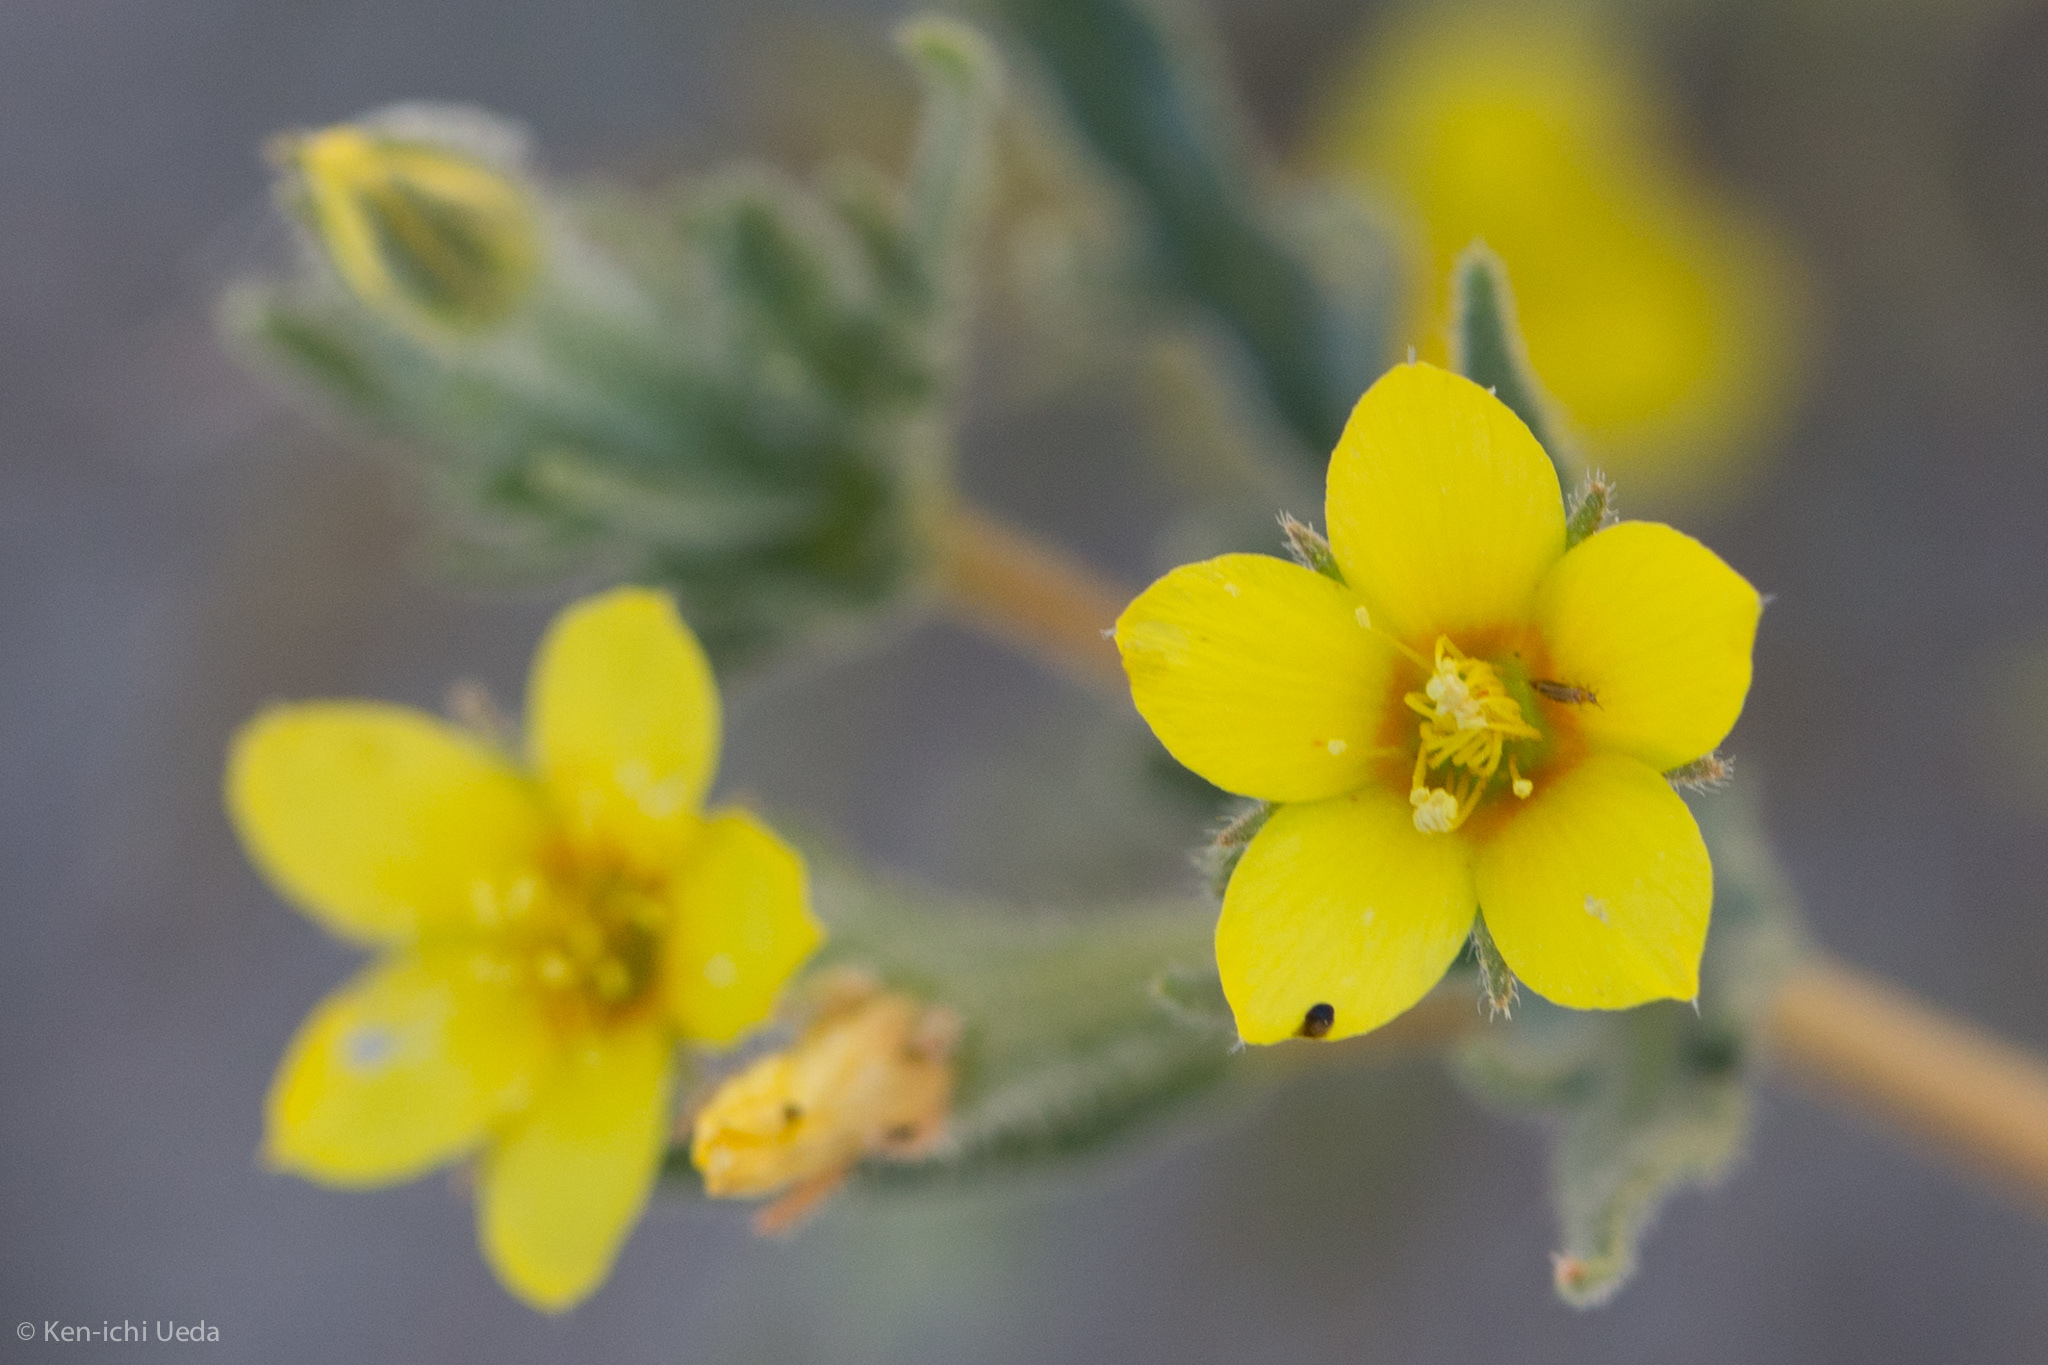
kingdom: Plantae
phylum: Tracheophyta
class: Magnoliopsida
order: Cornales
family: Loasaceae
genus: Mentzelia
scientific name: Mentzelia albicaulis
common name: White-stem blazingstar
